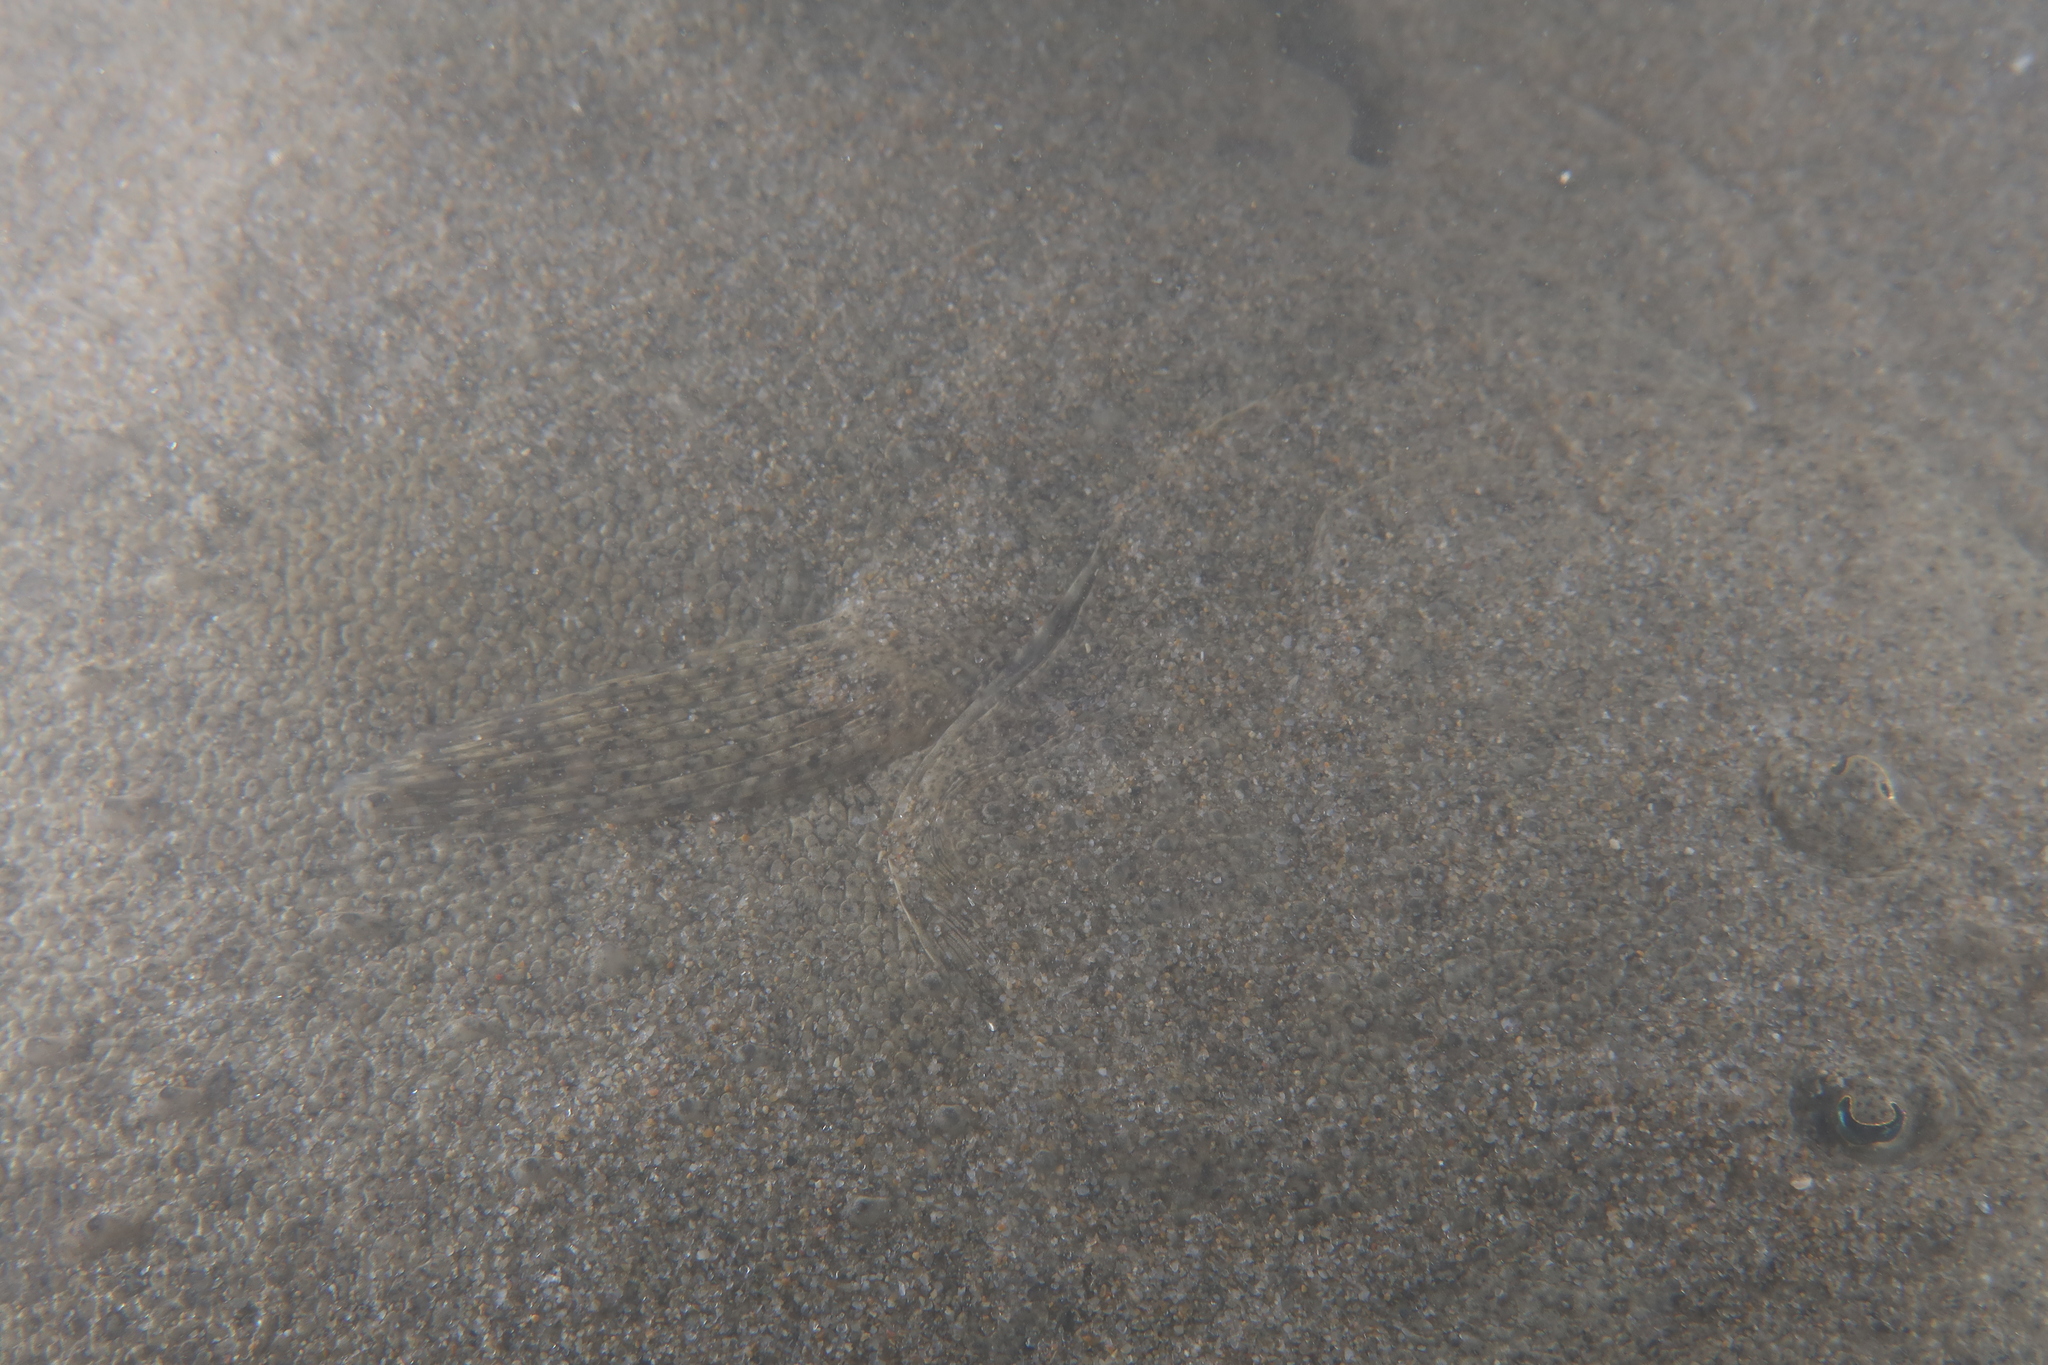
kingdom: Animalia
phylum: Chordata
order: Pleuronectiformes
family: Scophthalmidae
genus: Scophthalmus
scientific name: Scophthalmus maximus
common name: Turbot
